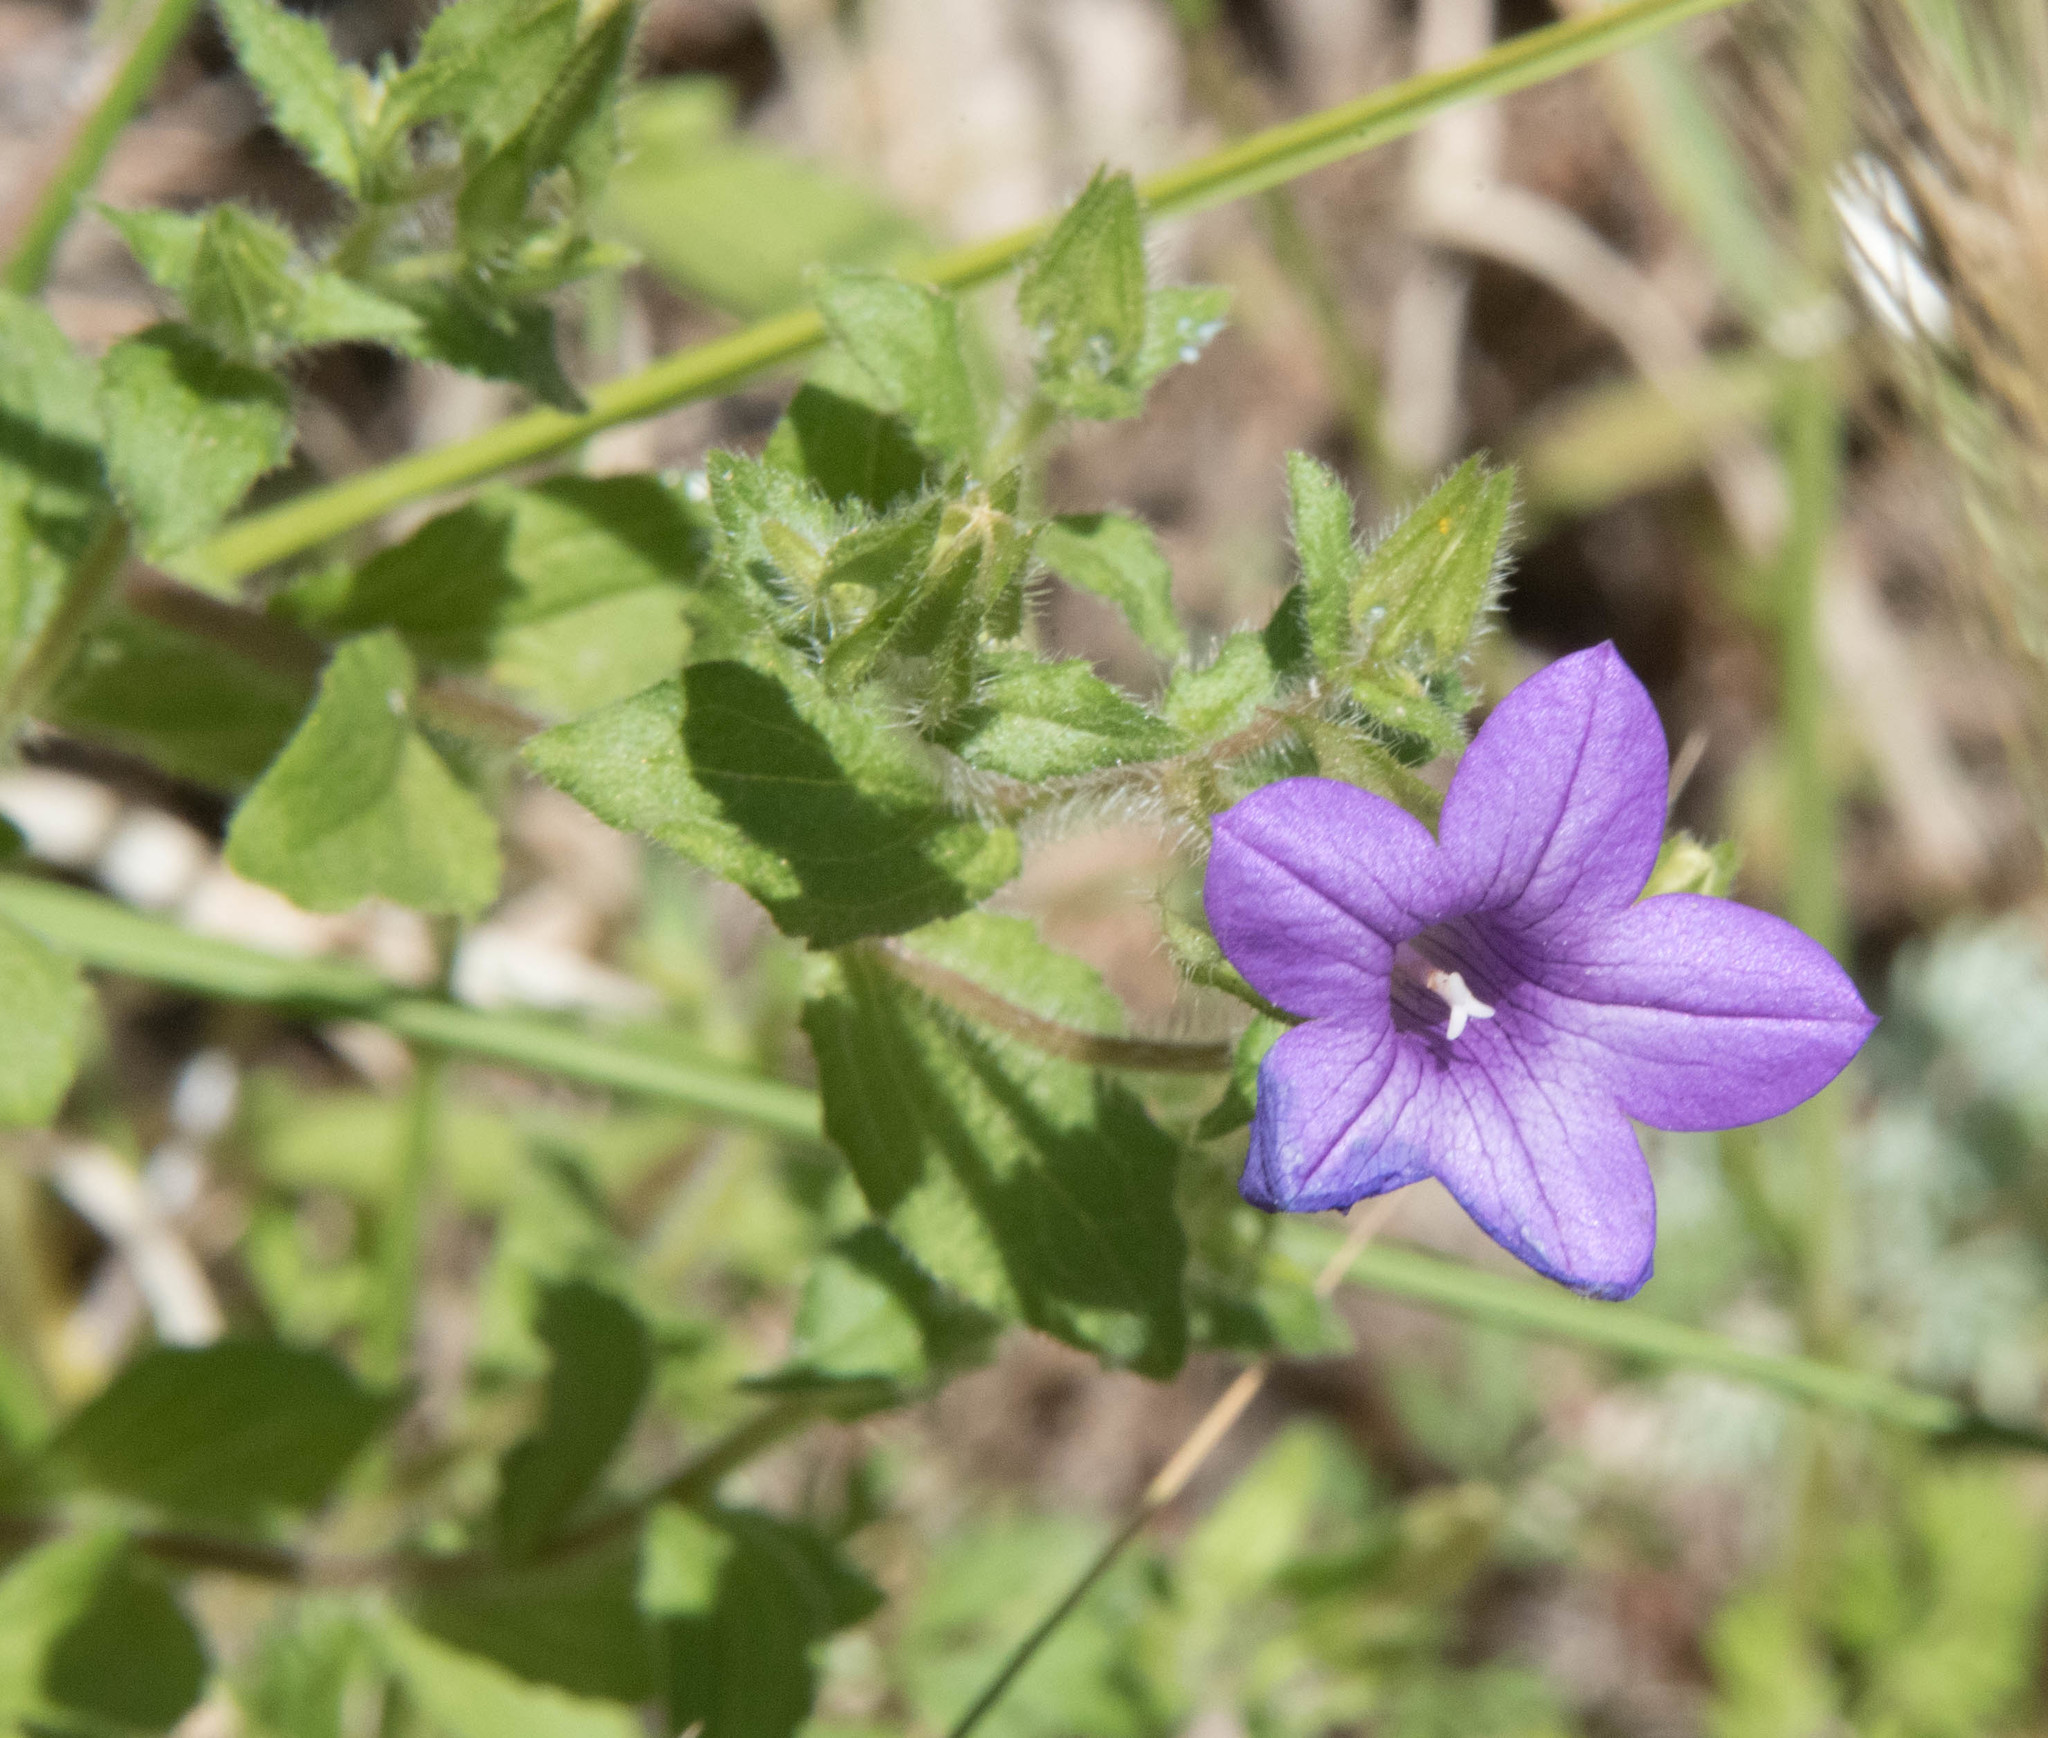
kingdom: Plantae
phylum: Tracheophyta
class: Magnoliopsida
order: Asterales
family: Campanulaceae
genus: Campanula
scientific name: Campanula dichotoma
